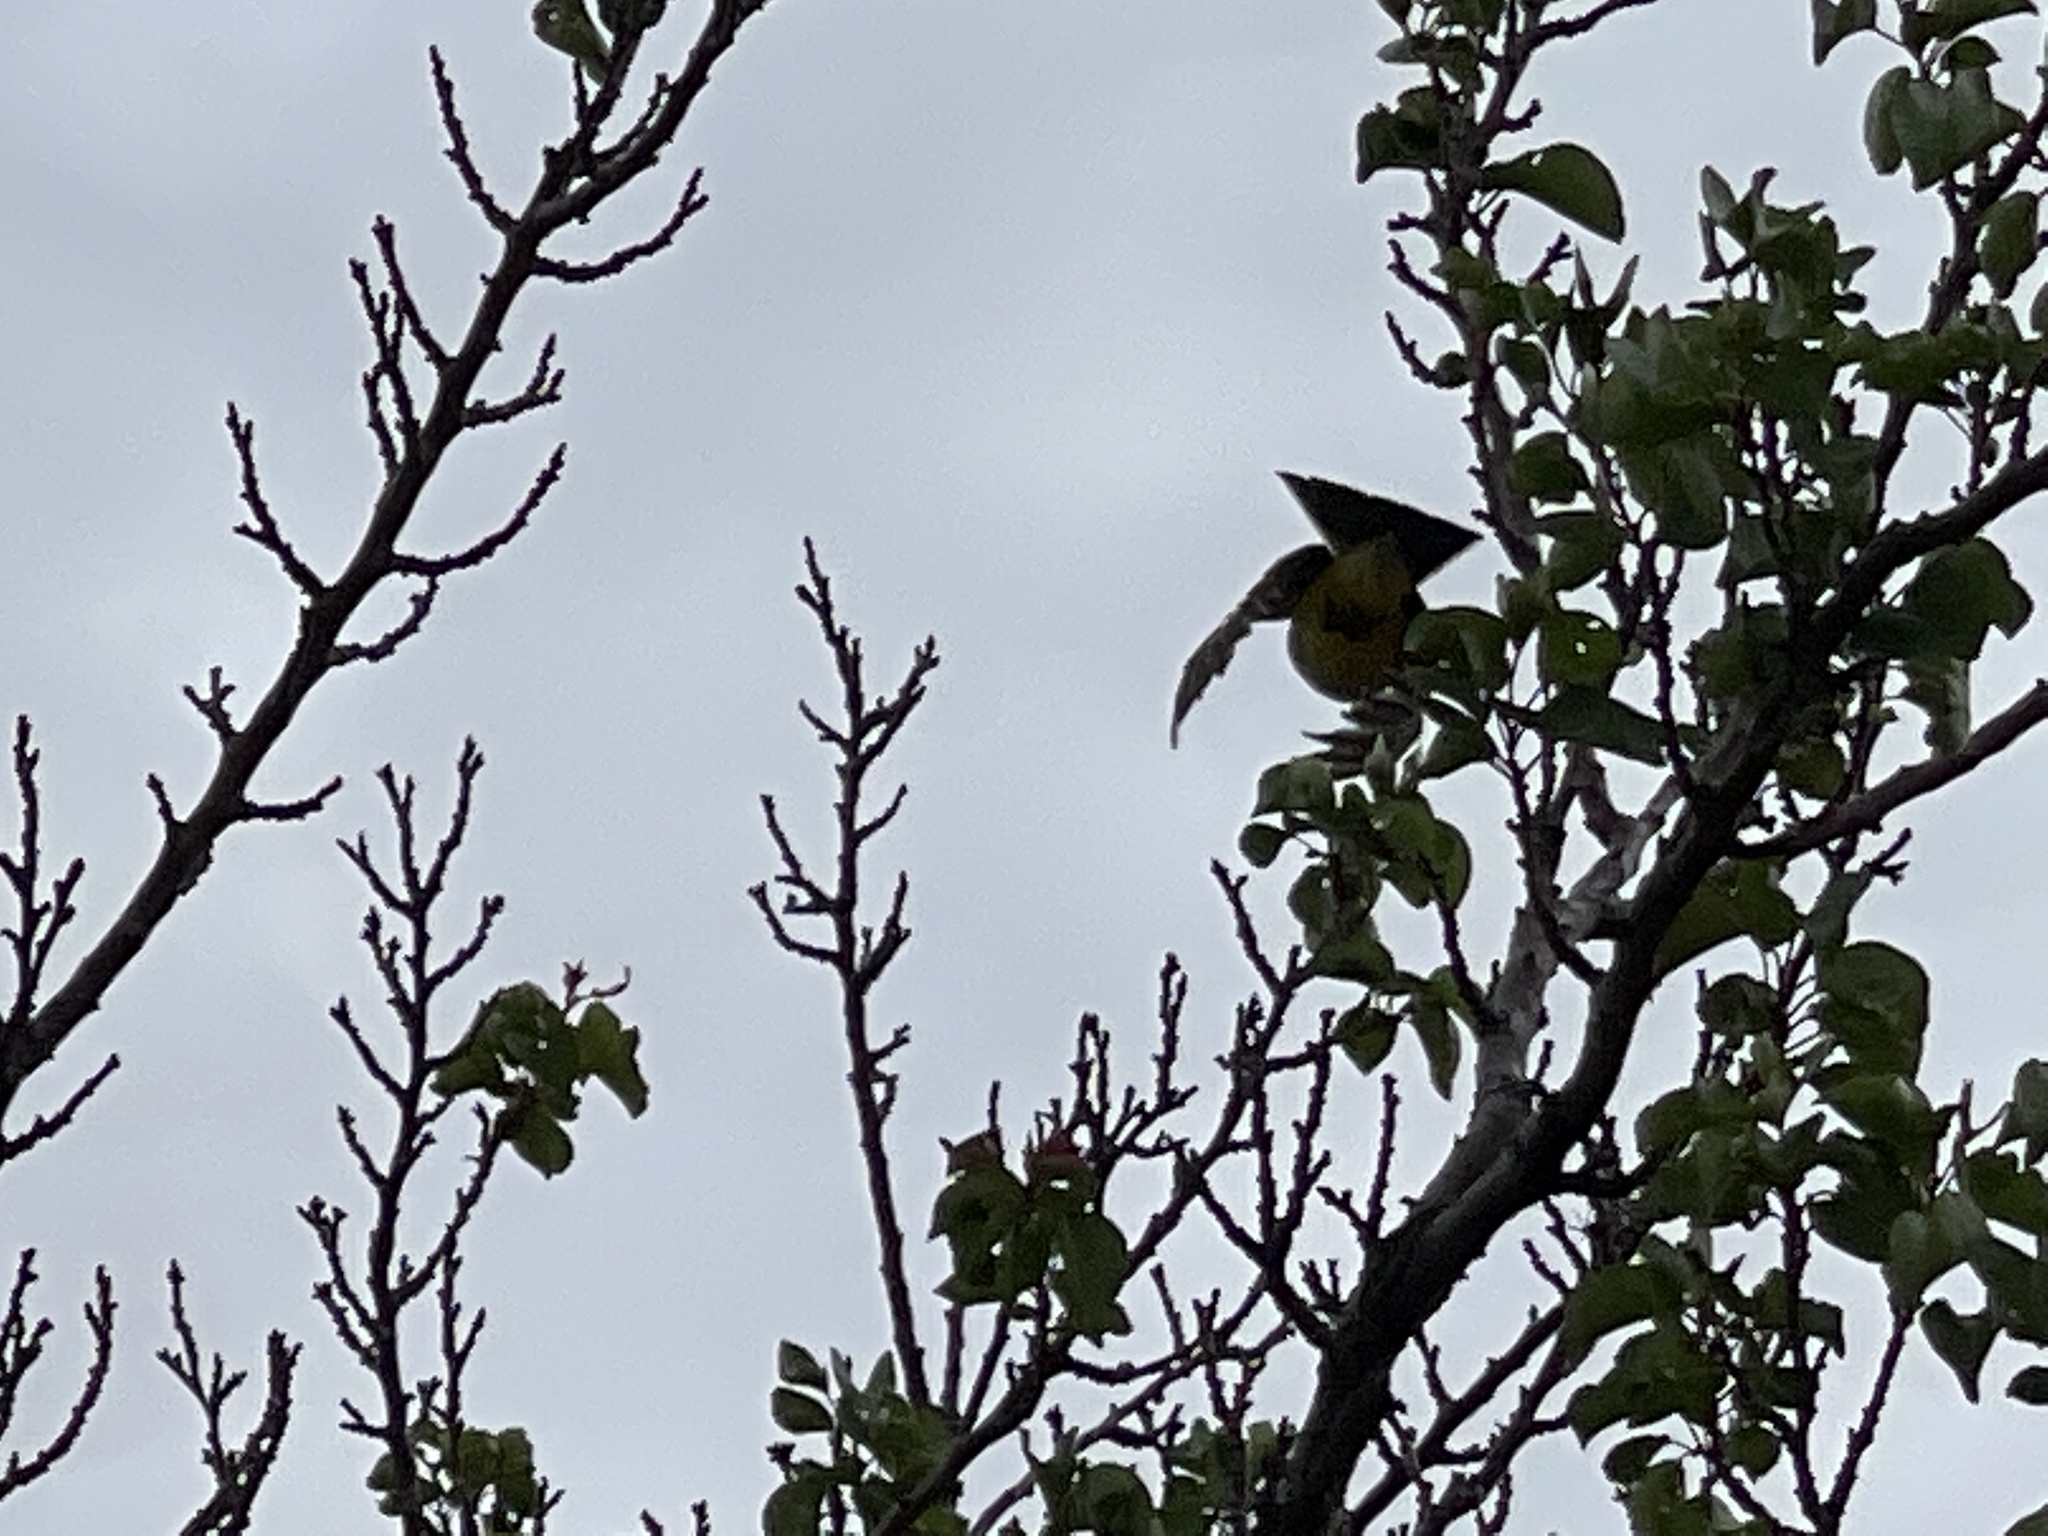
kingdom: Animalia
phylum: Chordata
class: Aves
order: Passeriformes
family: Tyrannidae
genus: Tyrannus
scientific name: Tyrannus verticalis
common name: Western kingbird
